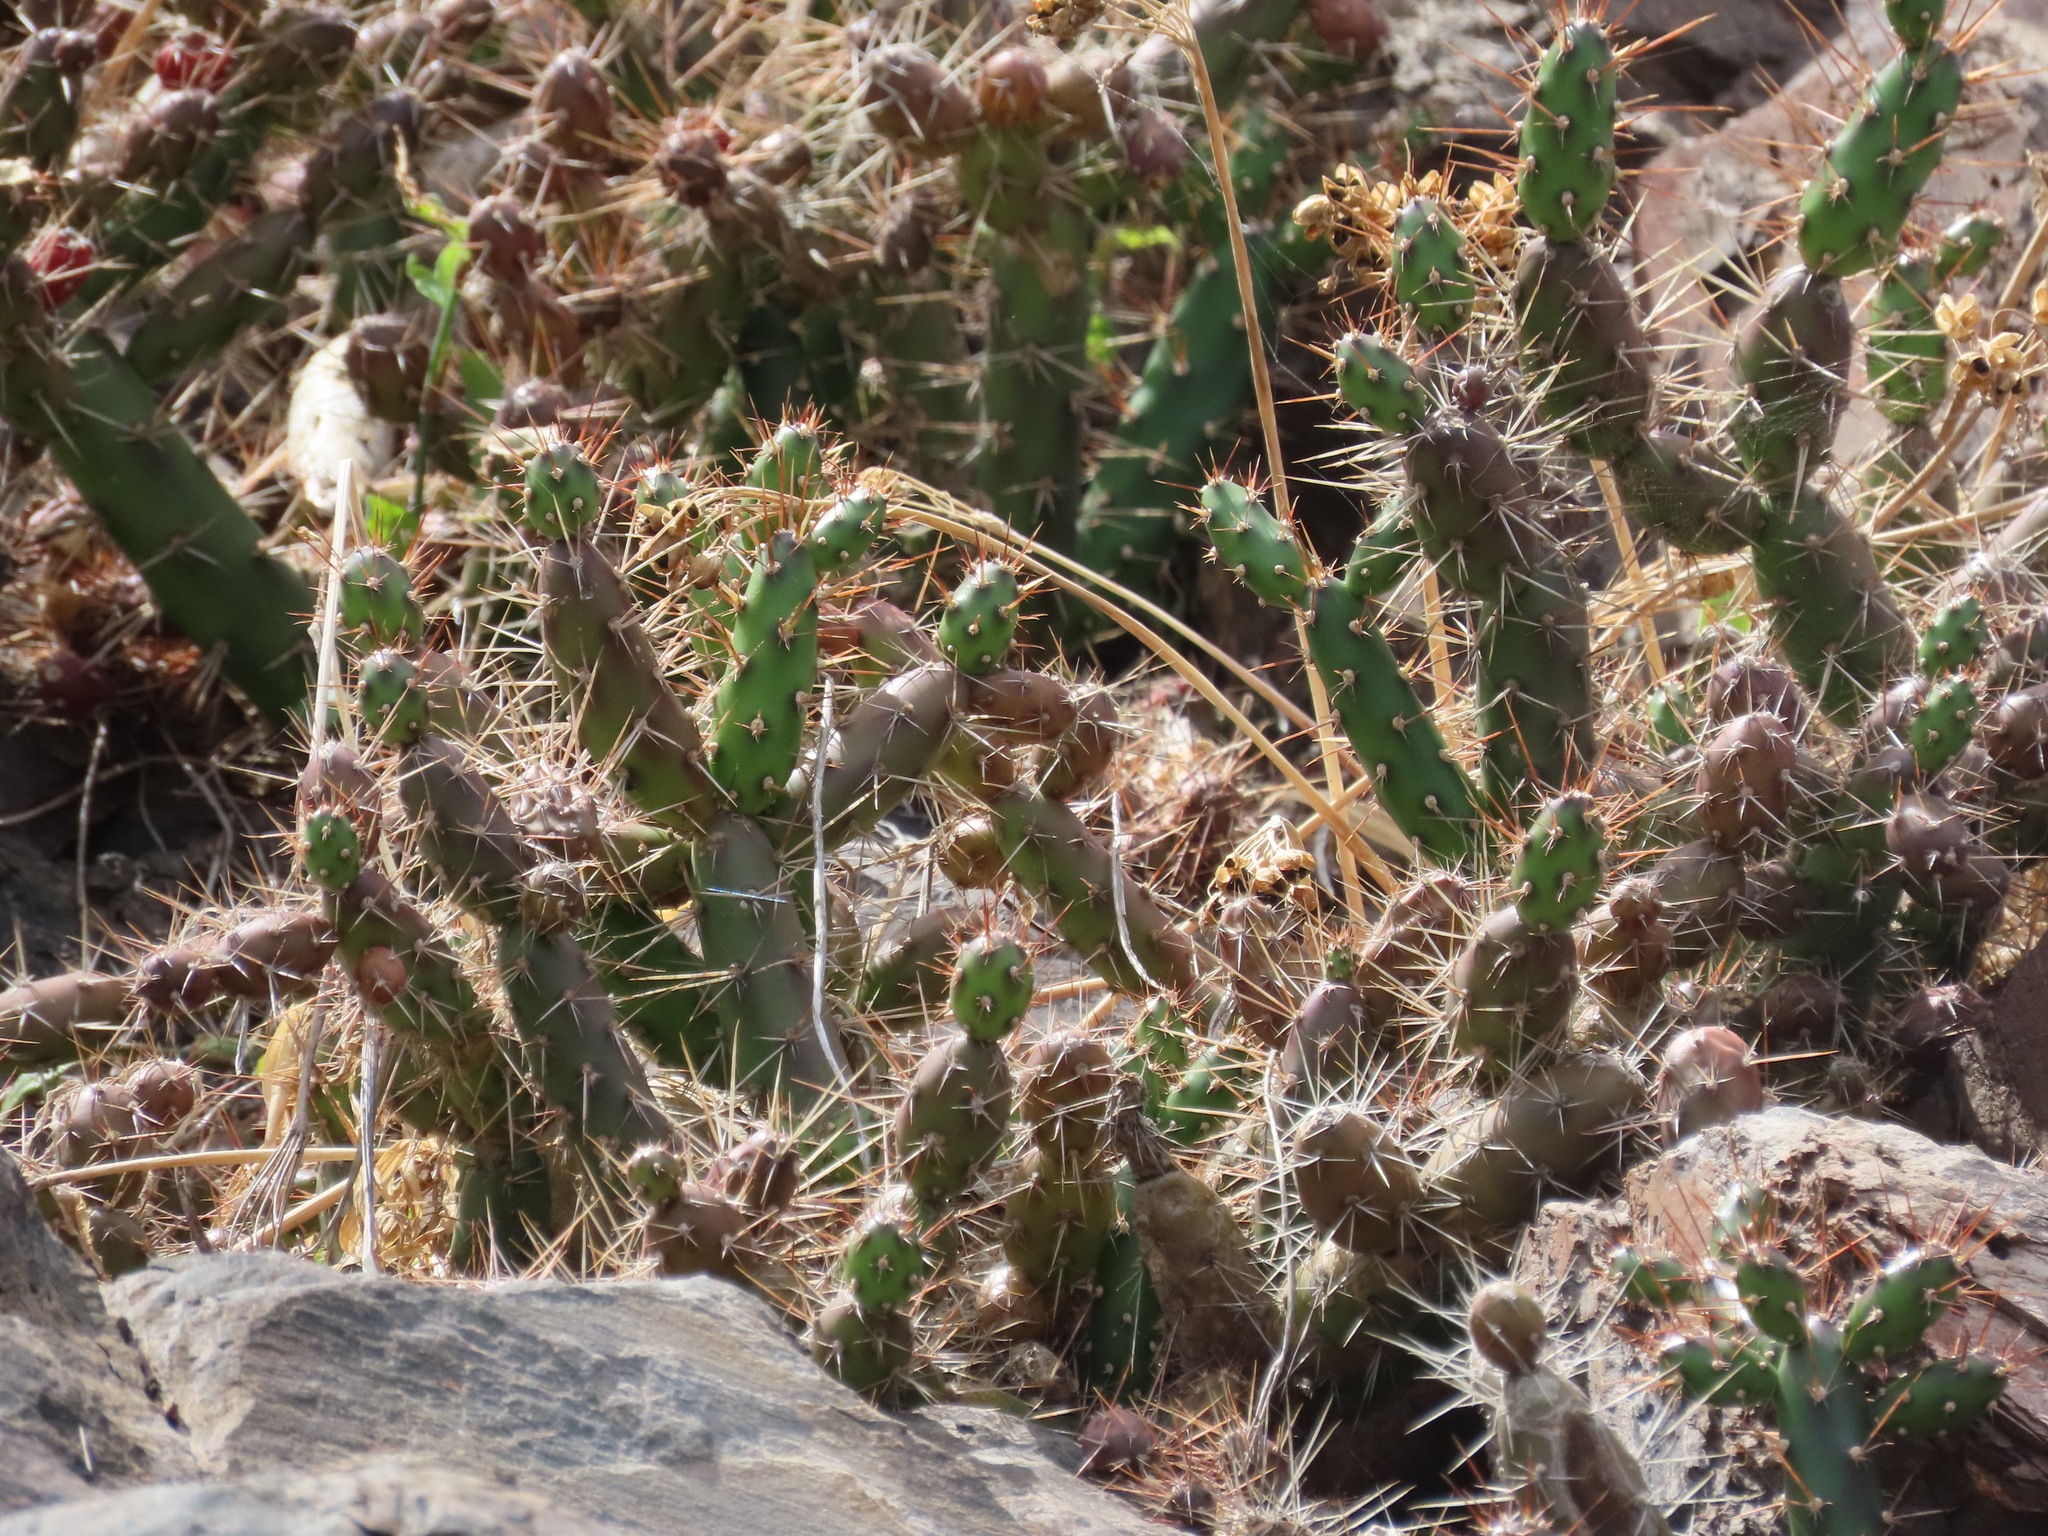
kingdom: Plantae
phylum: Tracheophyta
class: Magnoliopsida
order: Caryophyllales
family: Cactaceae
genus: Opuntia
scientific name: Opuntia aurantiaca
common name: Jointed pricklypear
